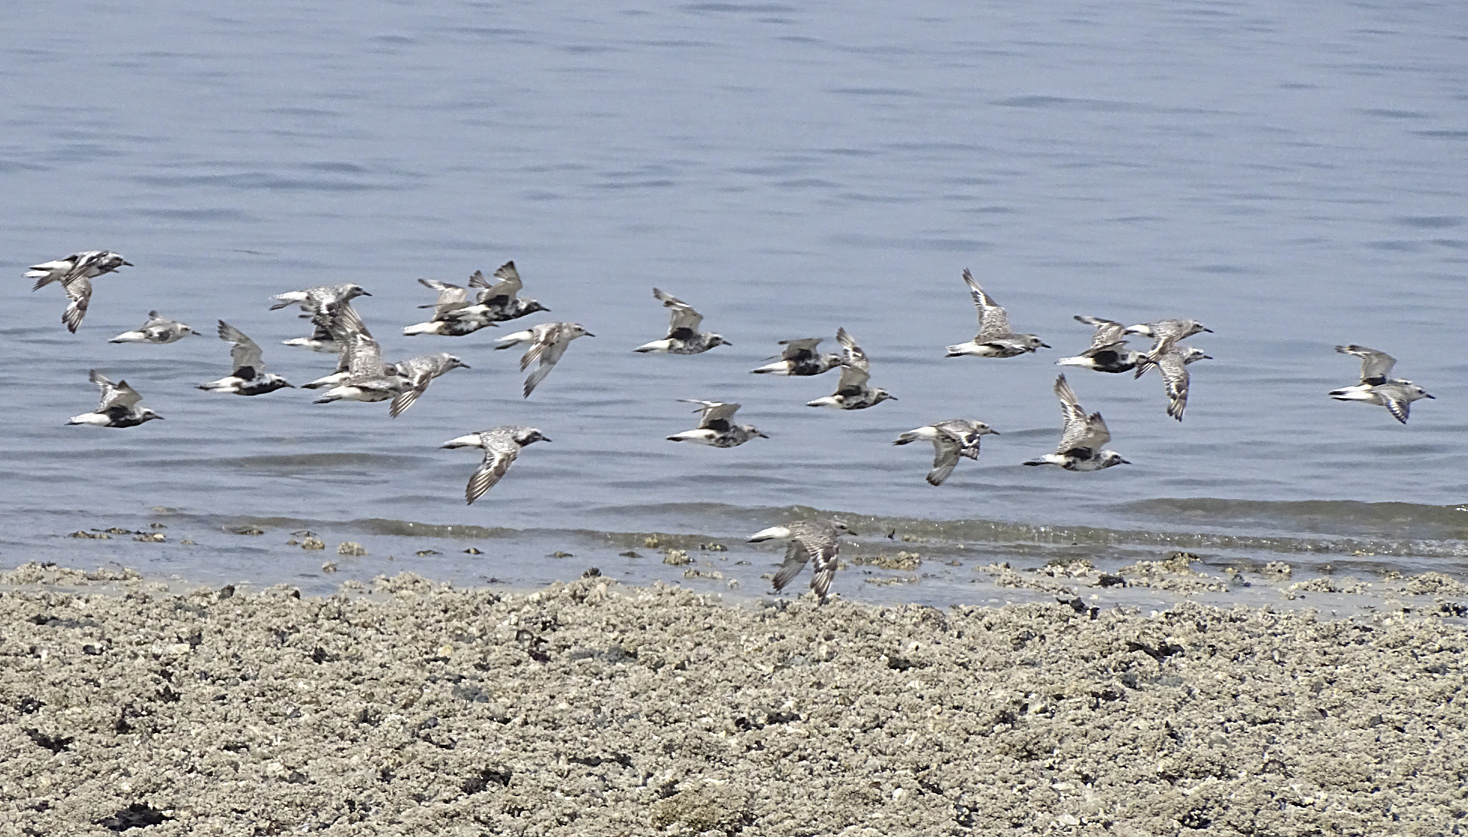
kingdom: Animalia
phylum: Chordata
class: Aves
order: Charadriiformes
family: Charadriidae
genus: Pluvialis
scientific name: Pluvialis squatarola
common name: Grey plover
